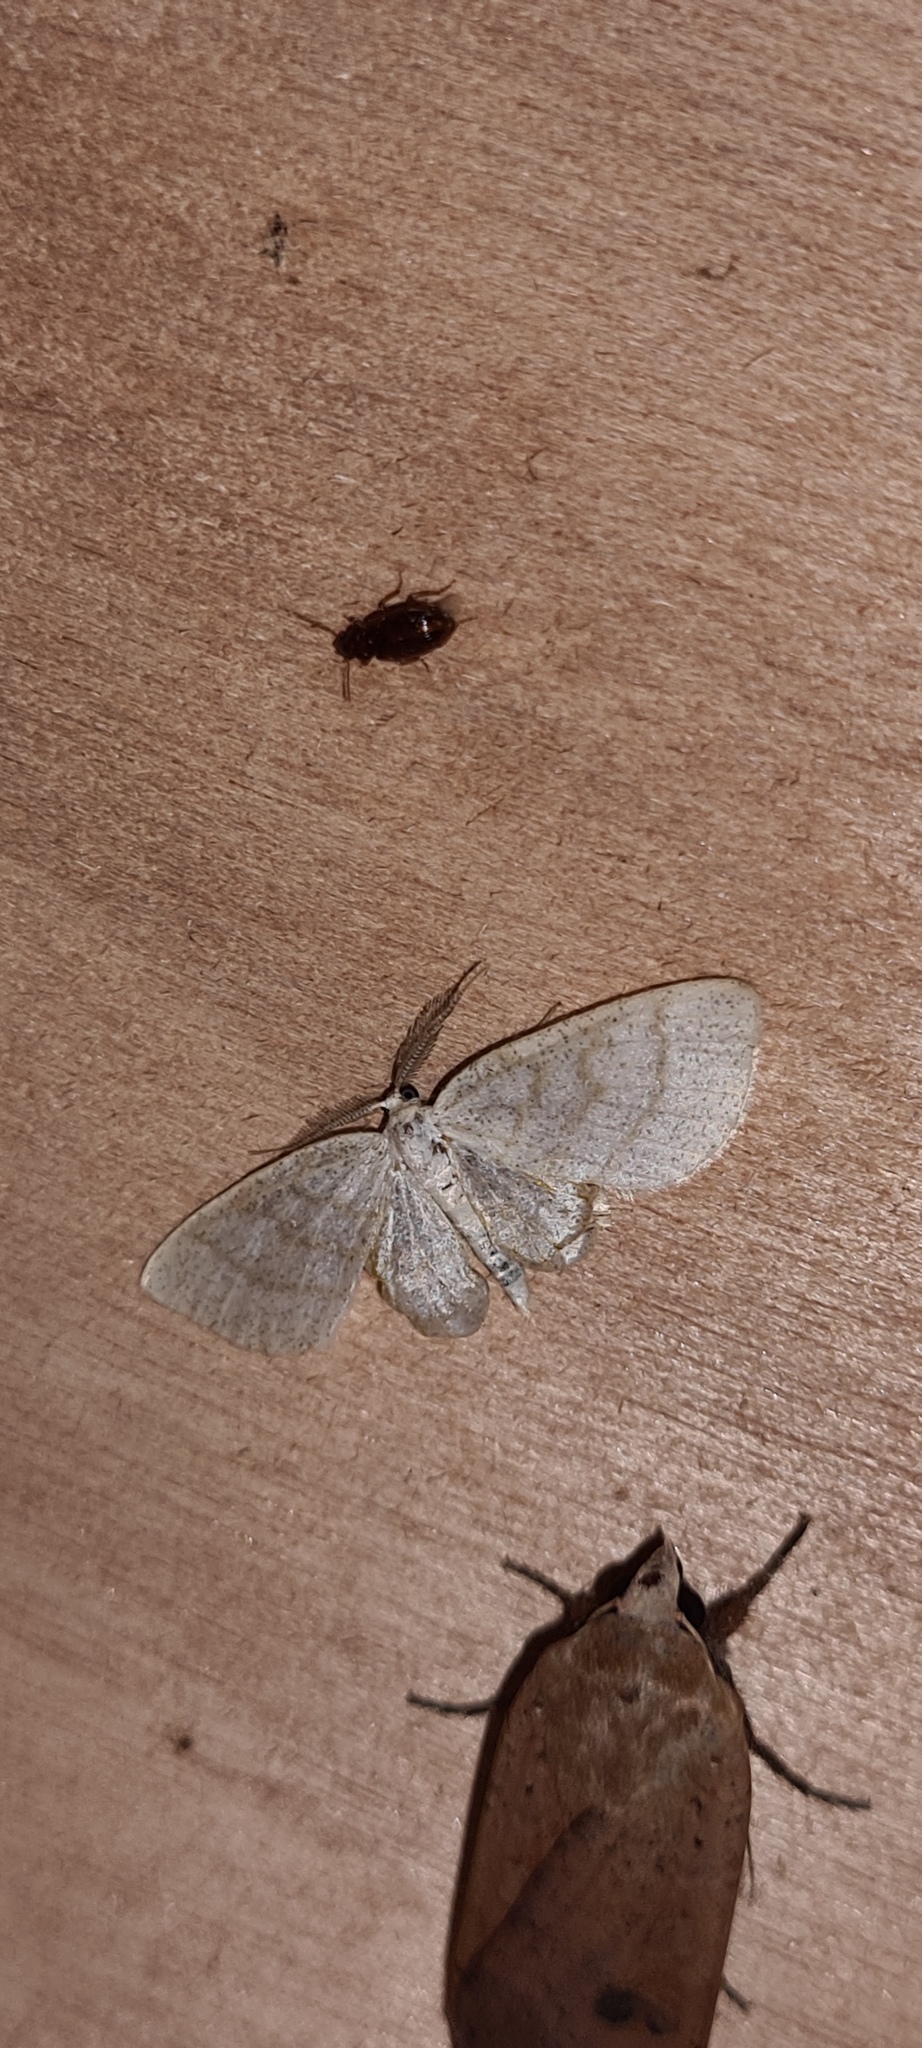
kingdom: Animalia
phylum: Arthropoda
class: Insecta
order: Lepidoptera
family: Geometridae
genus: Cabera
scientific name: Cabera exanthemata
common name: Common wave
